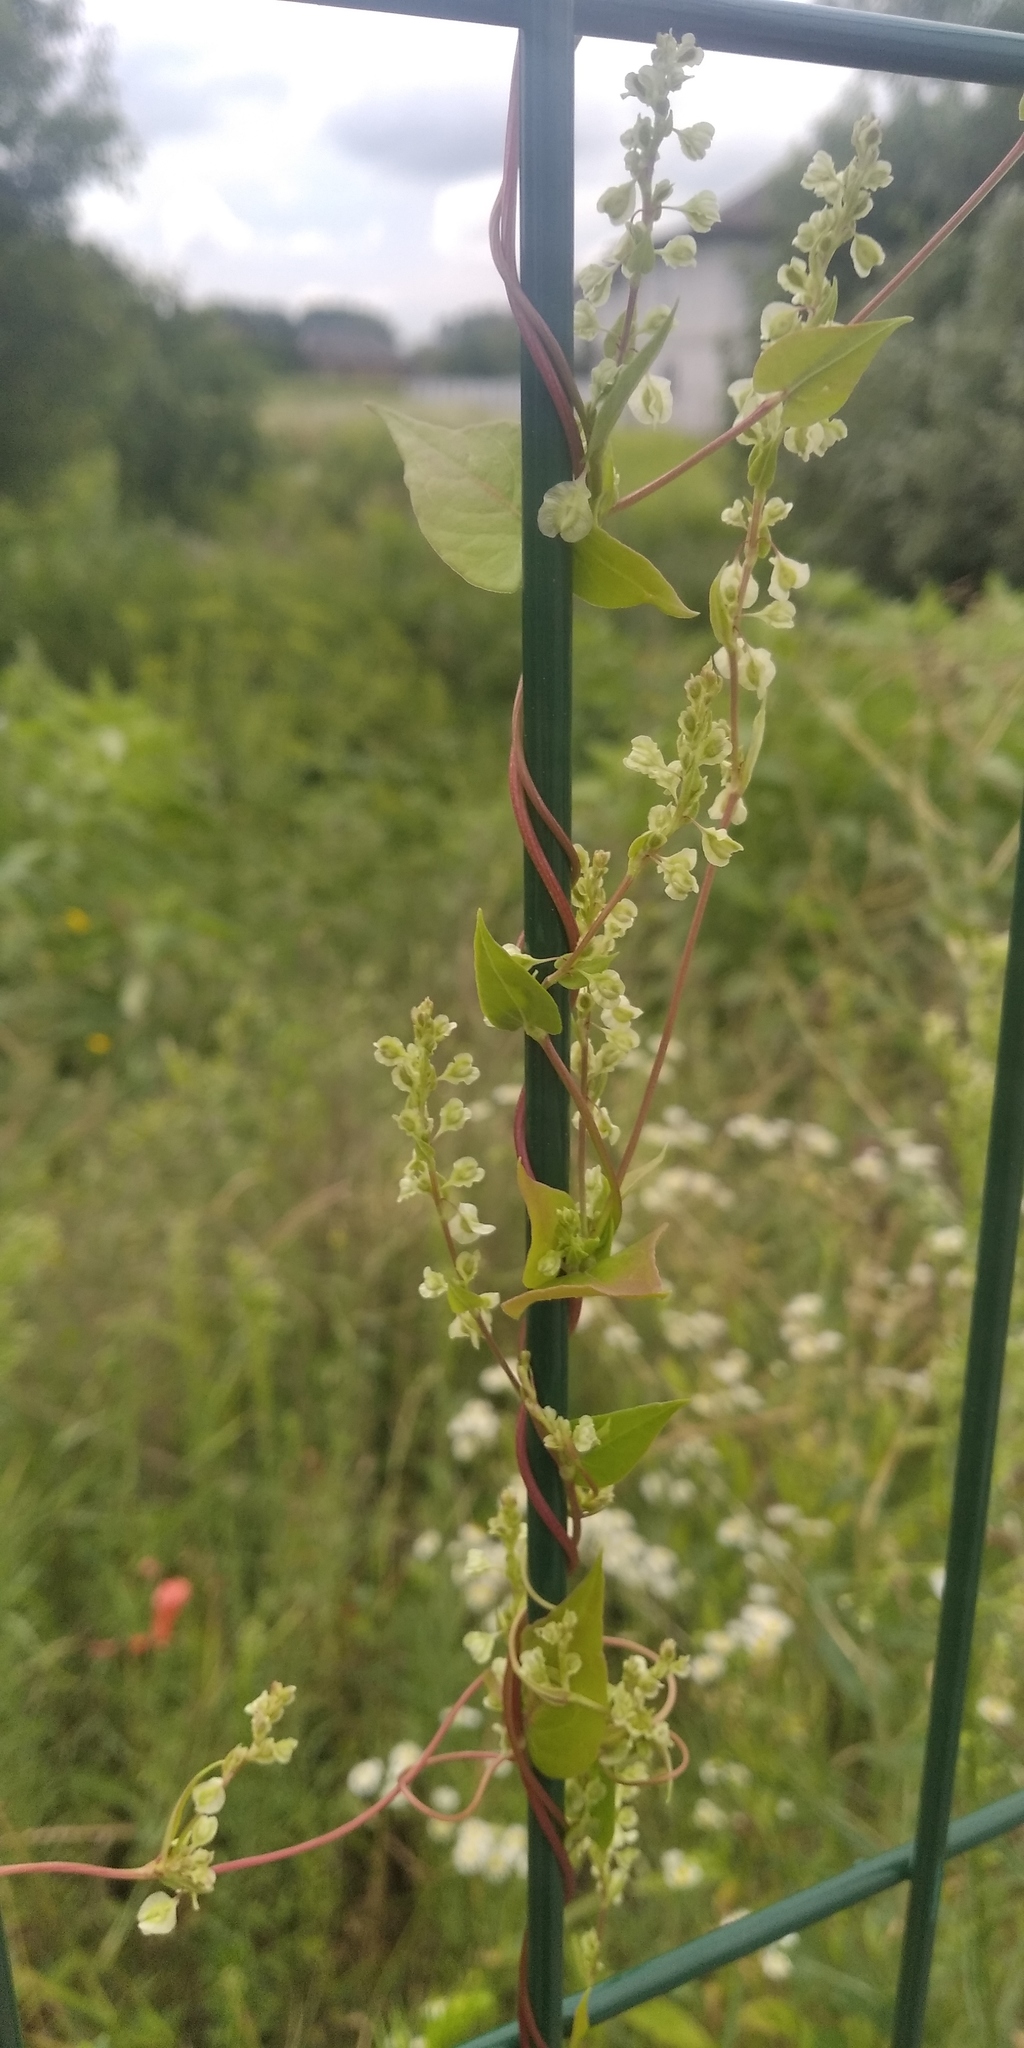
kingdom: Plantae
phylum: Tracheophyta
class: Magnoliopsida
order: Caryophyllales
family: Polygonaceae
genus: Fallopia
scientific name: Fallopia dumetorum
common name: Copse-bindweed
